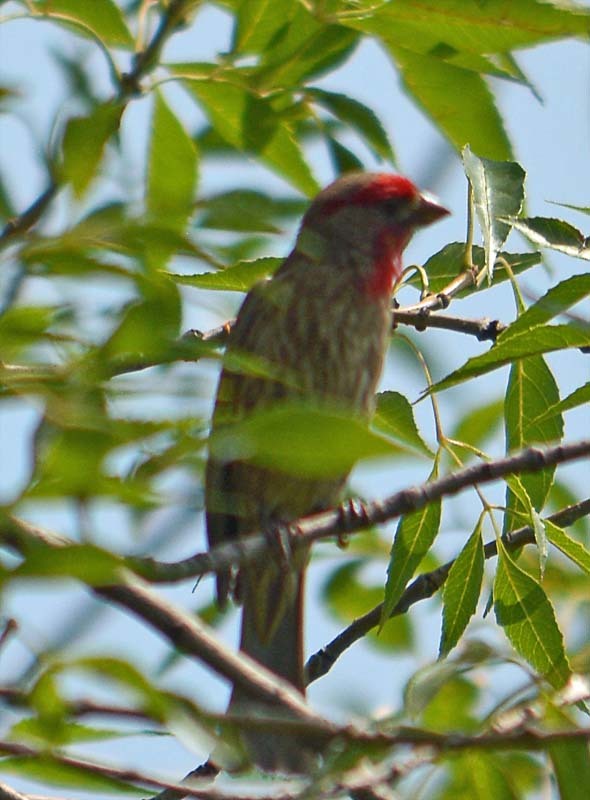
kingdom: Animalia
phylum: Chordata
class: Aves
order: Passeriformes
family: Fringillidae
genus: Haemorhous
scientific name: Haemorhous mexicanus
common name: House finch
